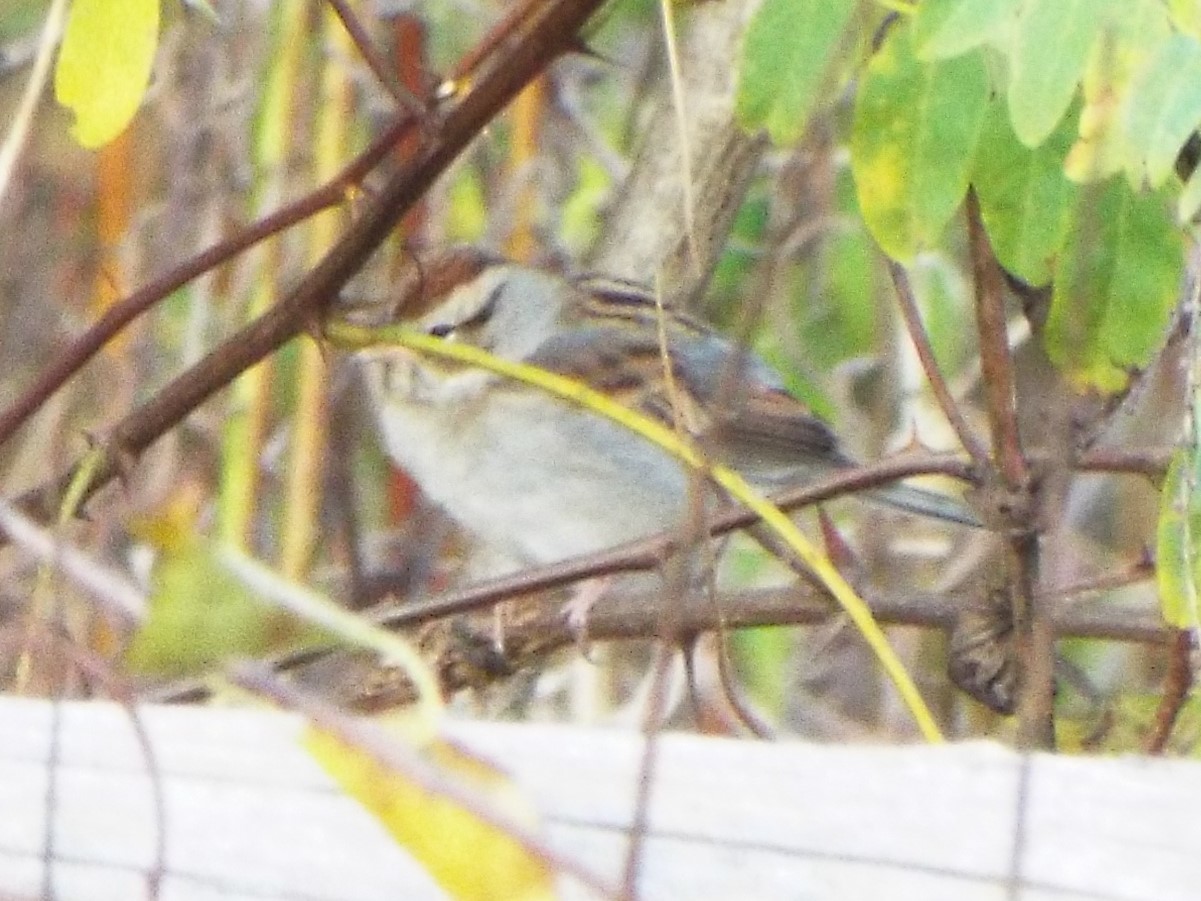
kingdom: Animalia
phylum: Chordata
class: Aves
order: Passeriformes
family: Passerellidae
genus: Spizella
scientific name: Spizella passerina
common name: Chipping sparrow
